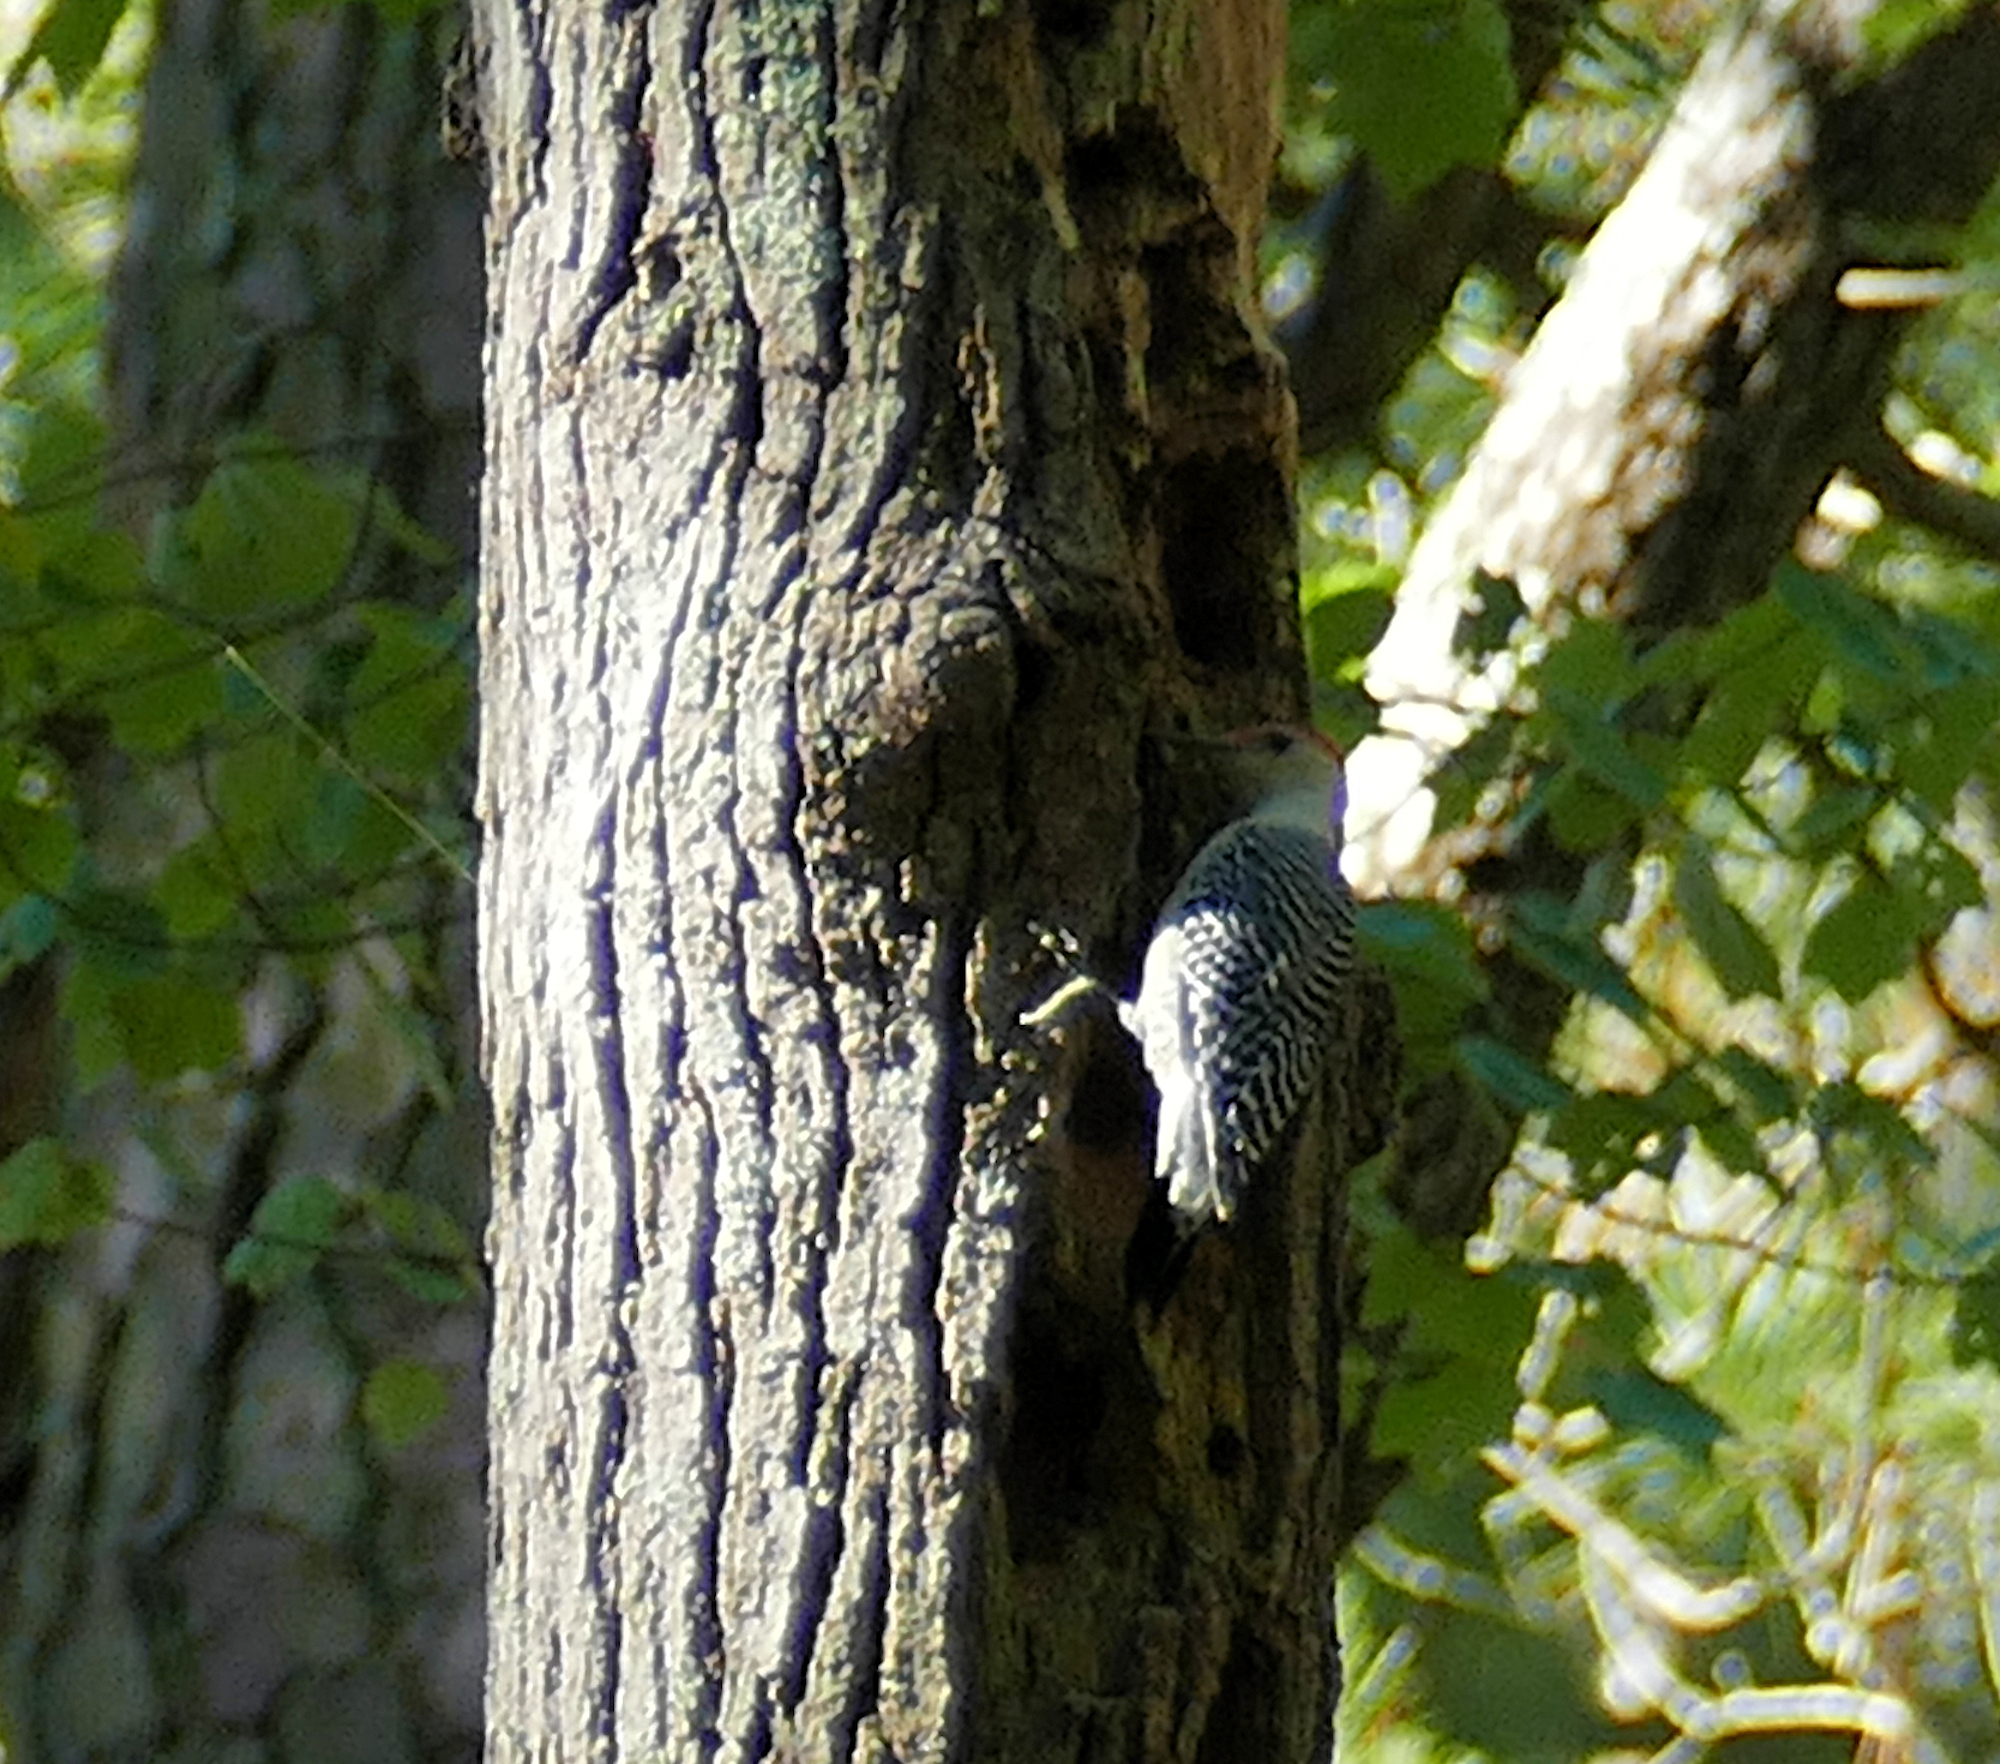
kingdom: Animalia
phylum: Chordata
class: Aves
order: Piciformes
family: Picidae
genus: Melanerpes
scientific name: Melanerpes carolinus
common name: Red-bellied woodpecker
